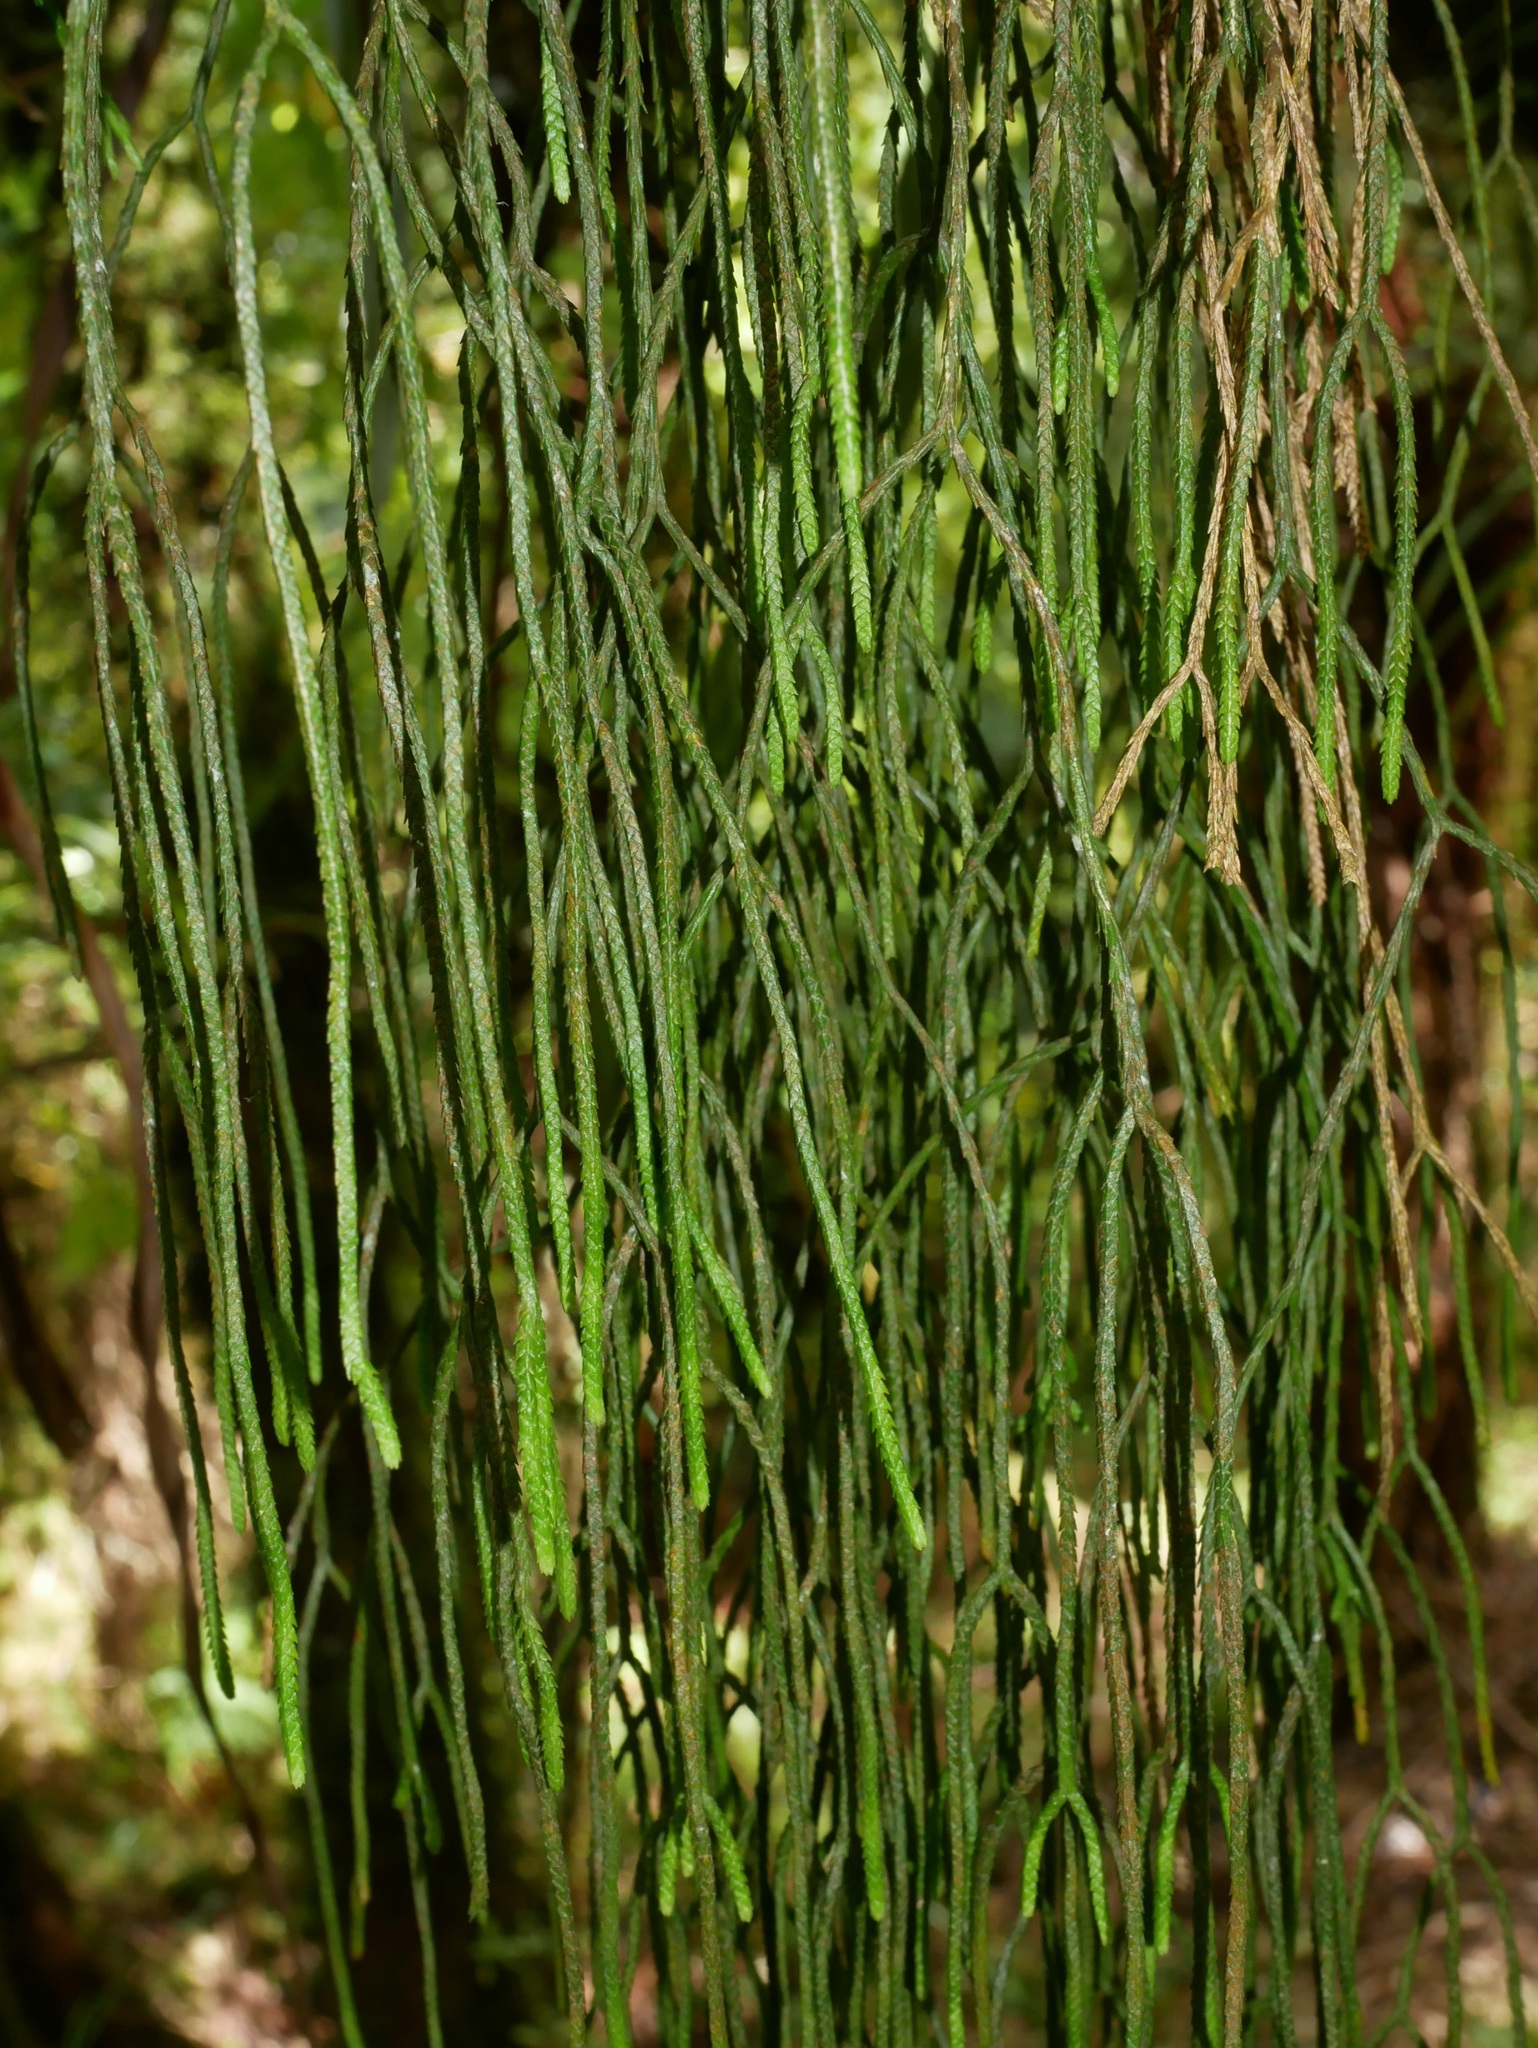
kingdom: Plantae
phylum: Tracheophyta
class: Lycopodiopsida
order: Lycopodiales
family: Lycopodiaceae
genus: Phlegmariurus
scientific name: Phlegmariurus billardierei
